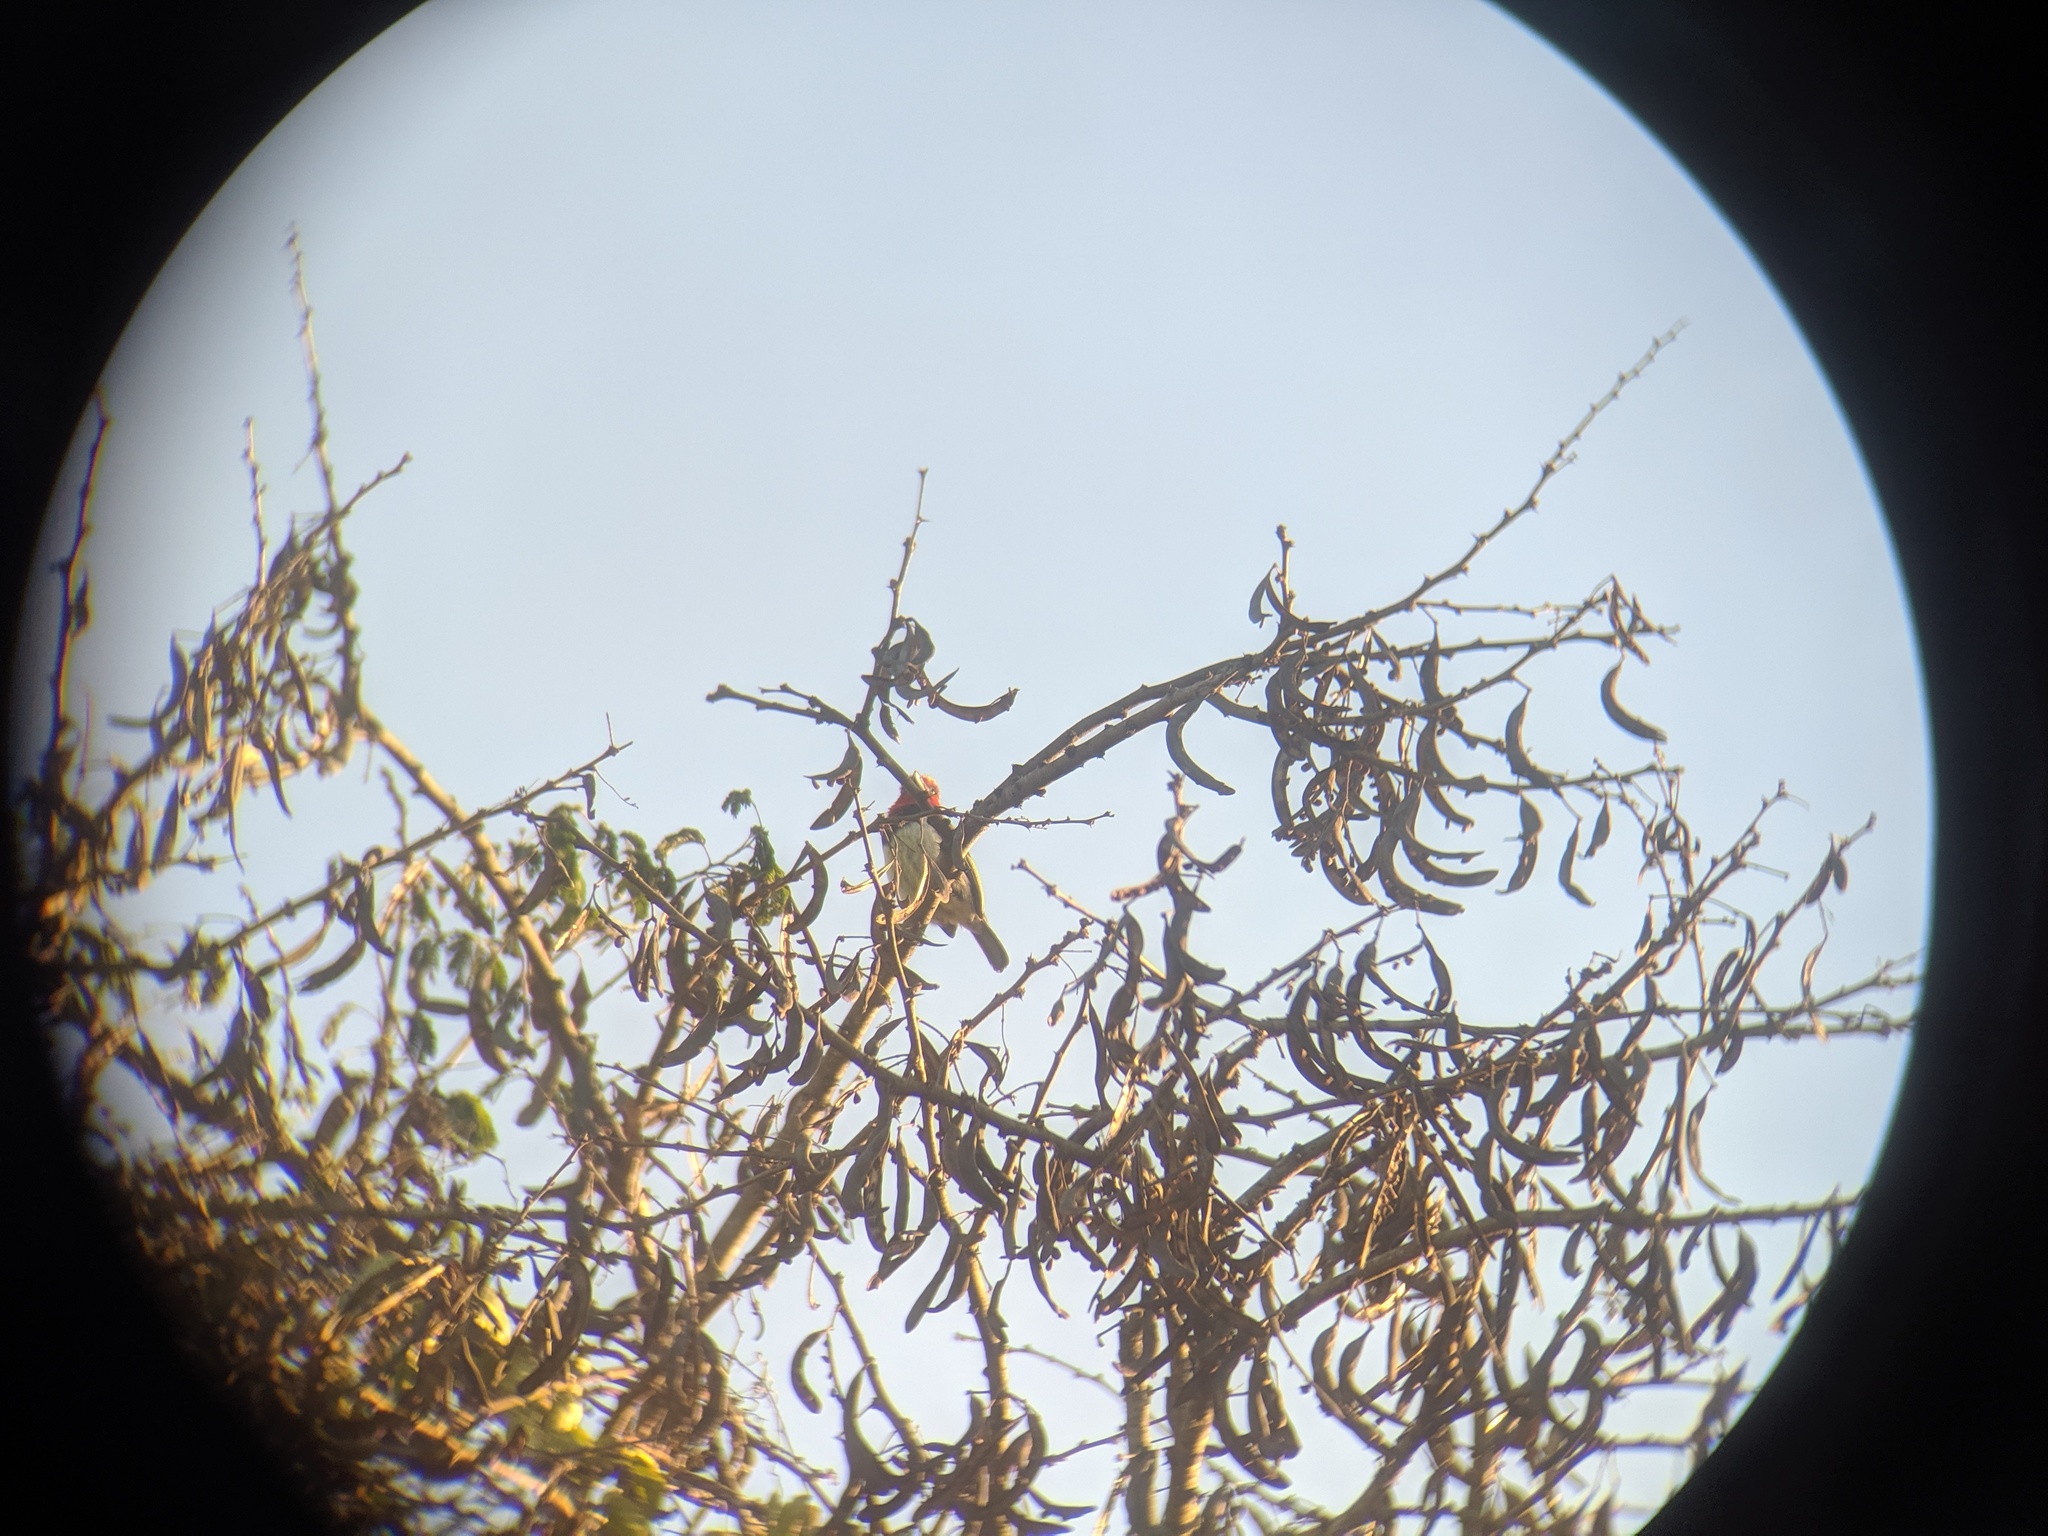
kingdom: Animalia
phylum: Chordata
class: Aves
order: Piciformes
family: Lybiidae
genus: Lybius
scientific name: Lybius torquatus
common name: Black-collared barbet
